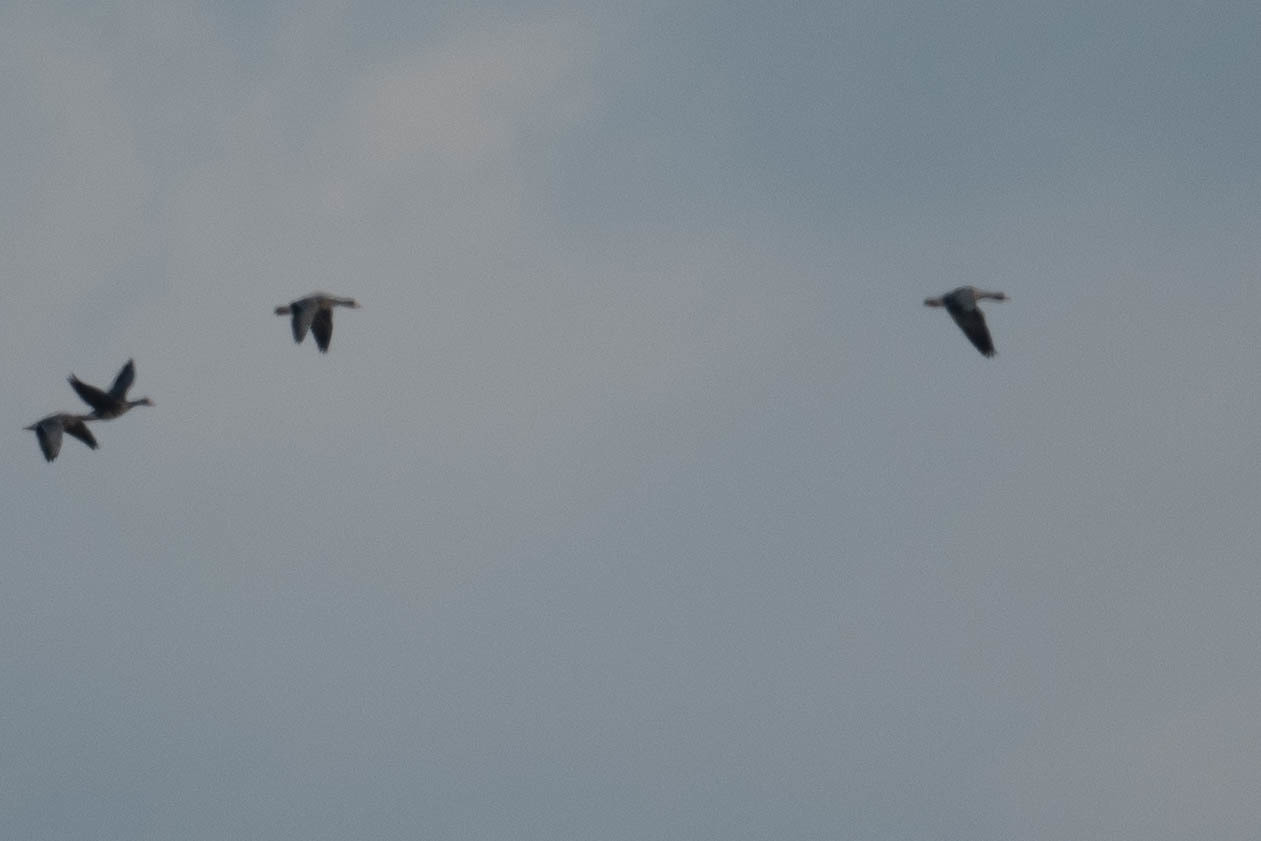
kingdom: Animalia
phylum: Chordata
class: Aves
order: Anseriformes
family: Anatidae
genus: Anser
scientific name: Anser albifrons
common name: Greater white-fronted goose
